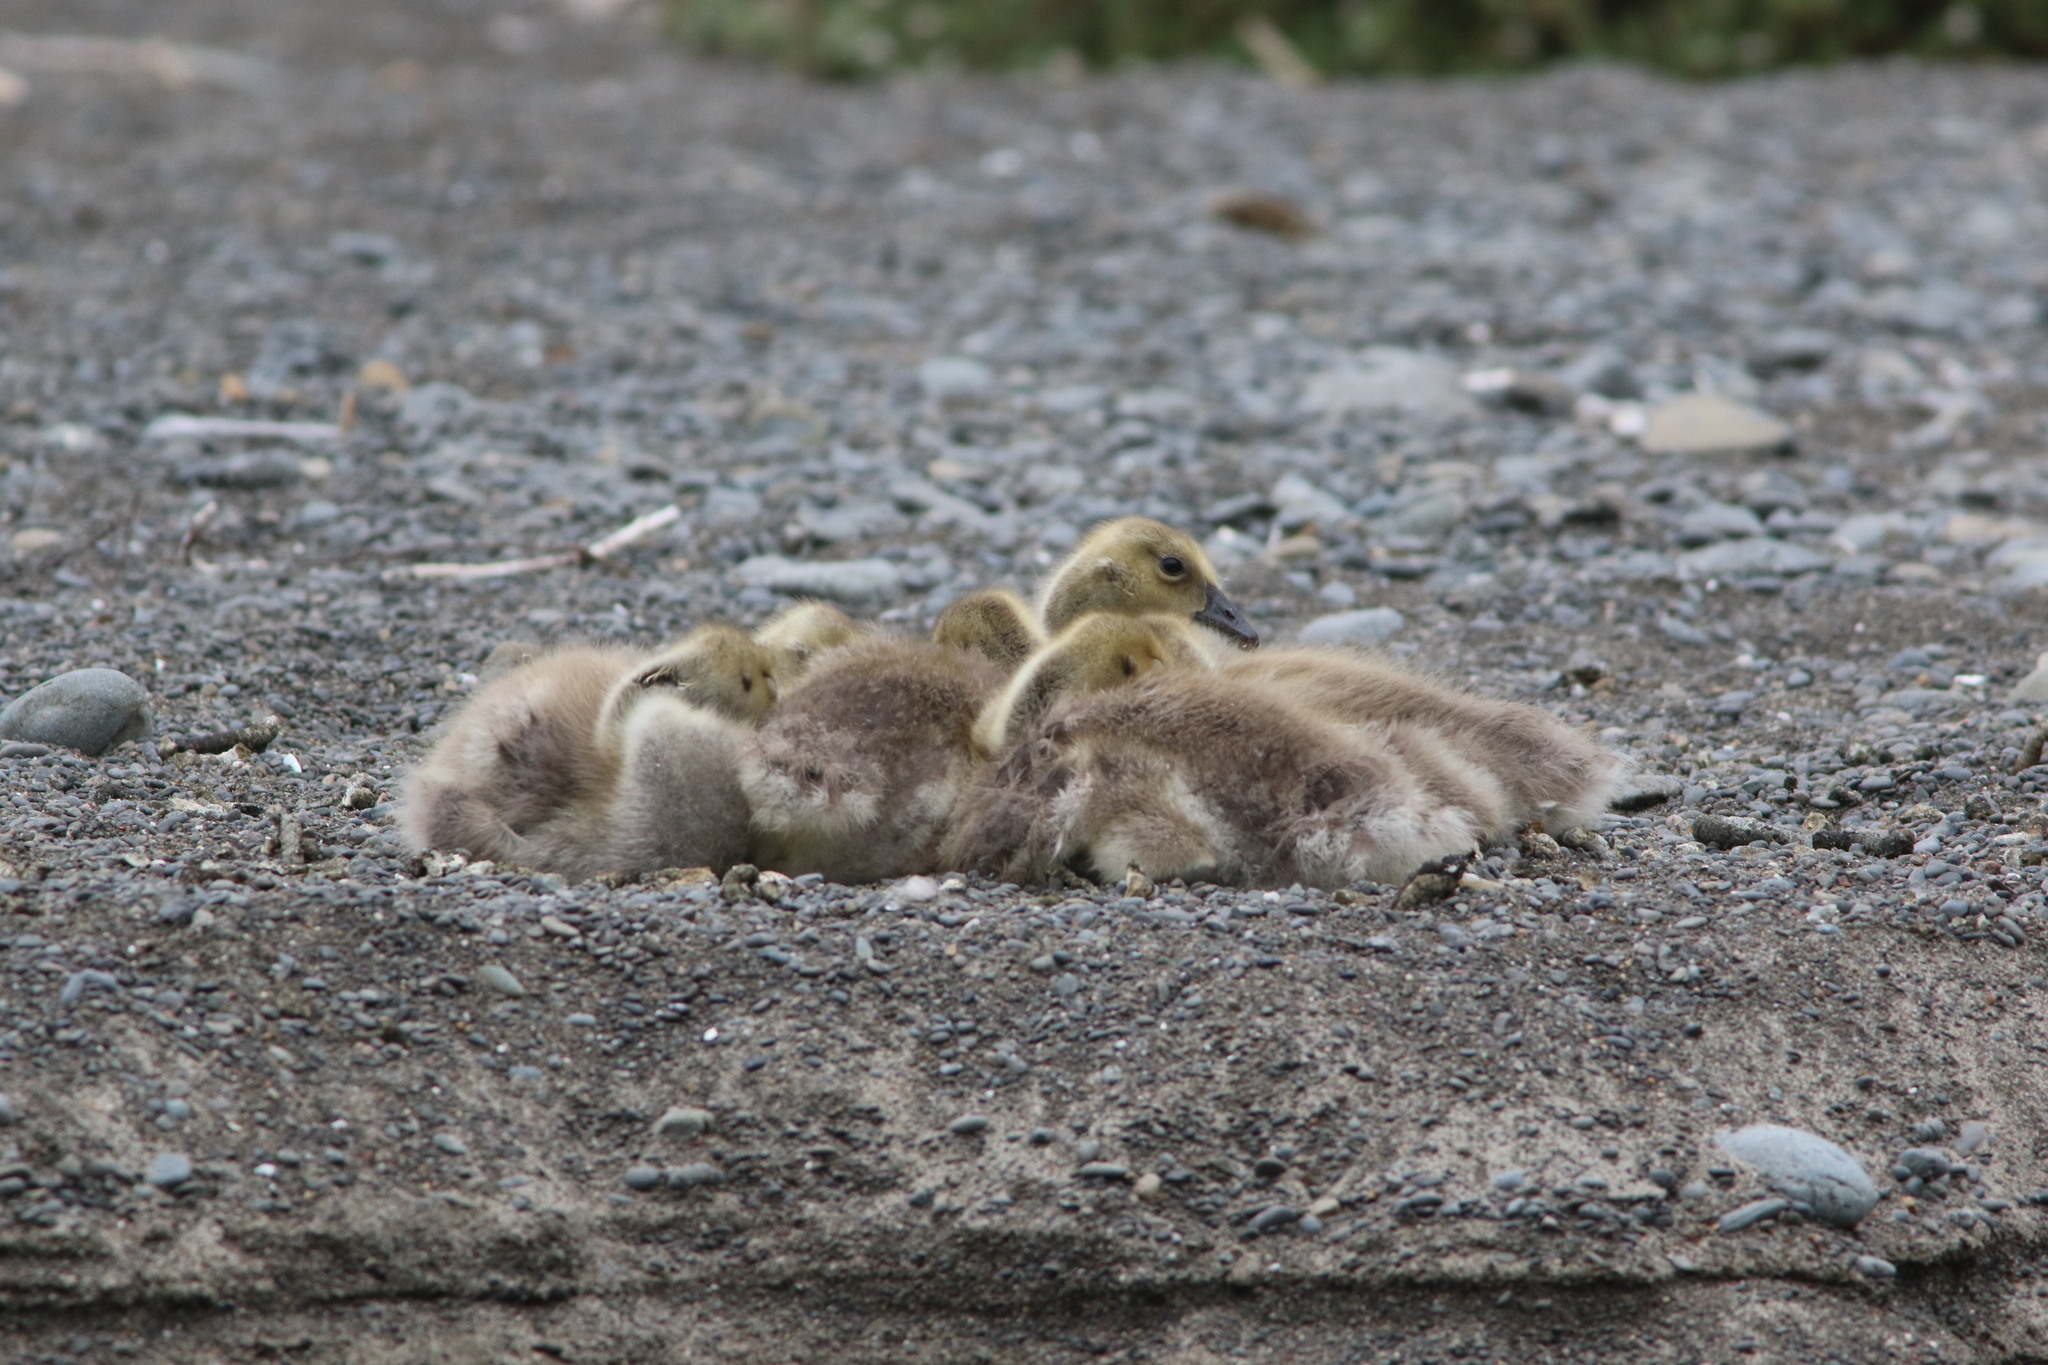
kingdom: Animalia
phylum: Chordata
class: Aves
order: Anseriformes
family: Anatidae
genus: Branta
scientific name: Branta canadensis
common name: Canada goose
